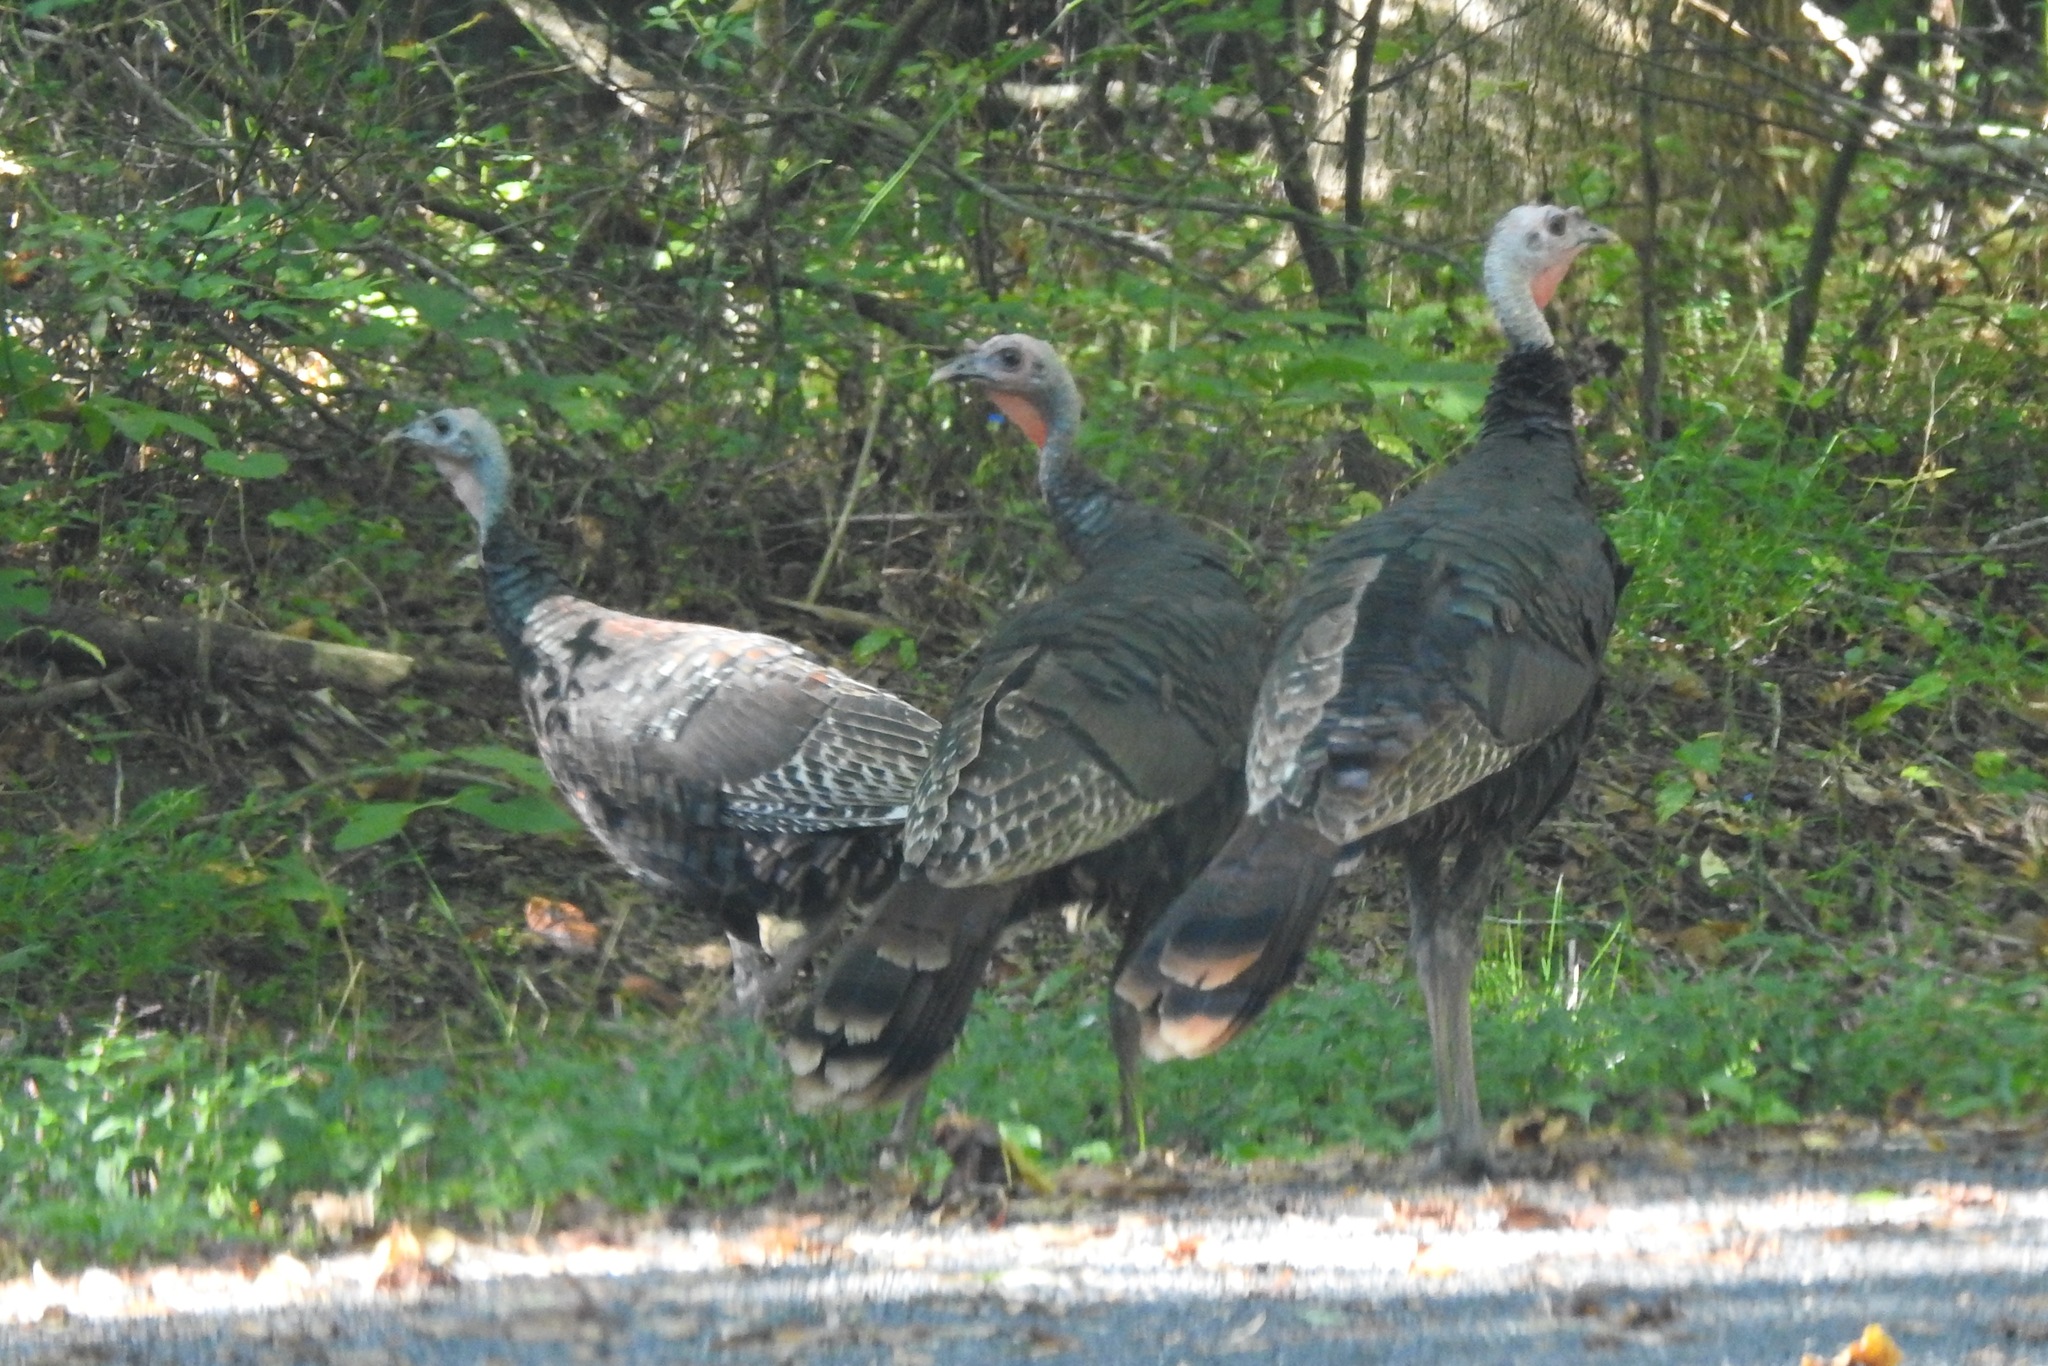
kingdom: Animalia
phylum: Chordata
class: Aves
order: Galliformes
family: Phasianidae
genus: Meleagris
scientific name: Meleagris gallopavo
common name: Wild turkey
